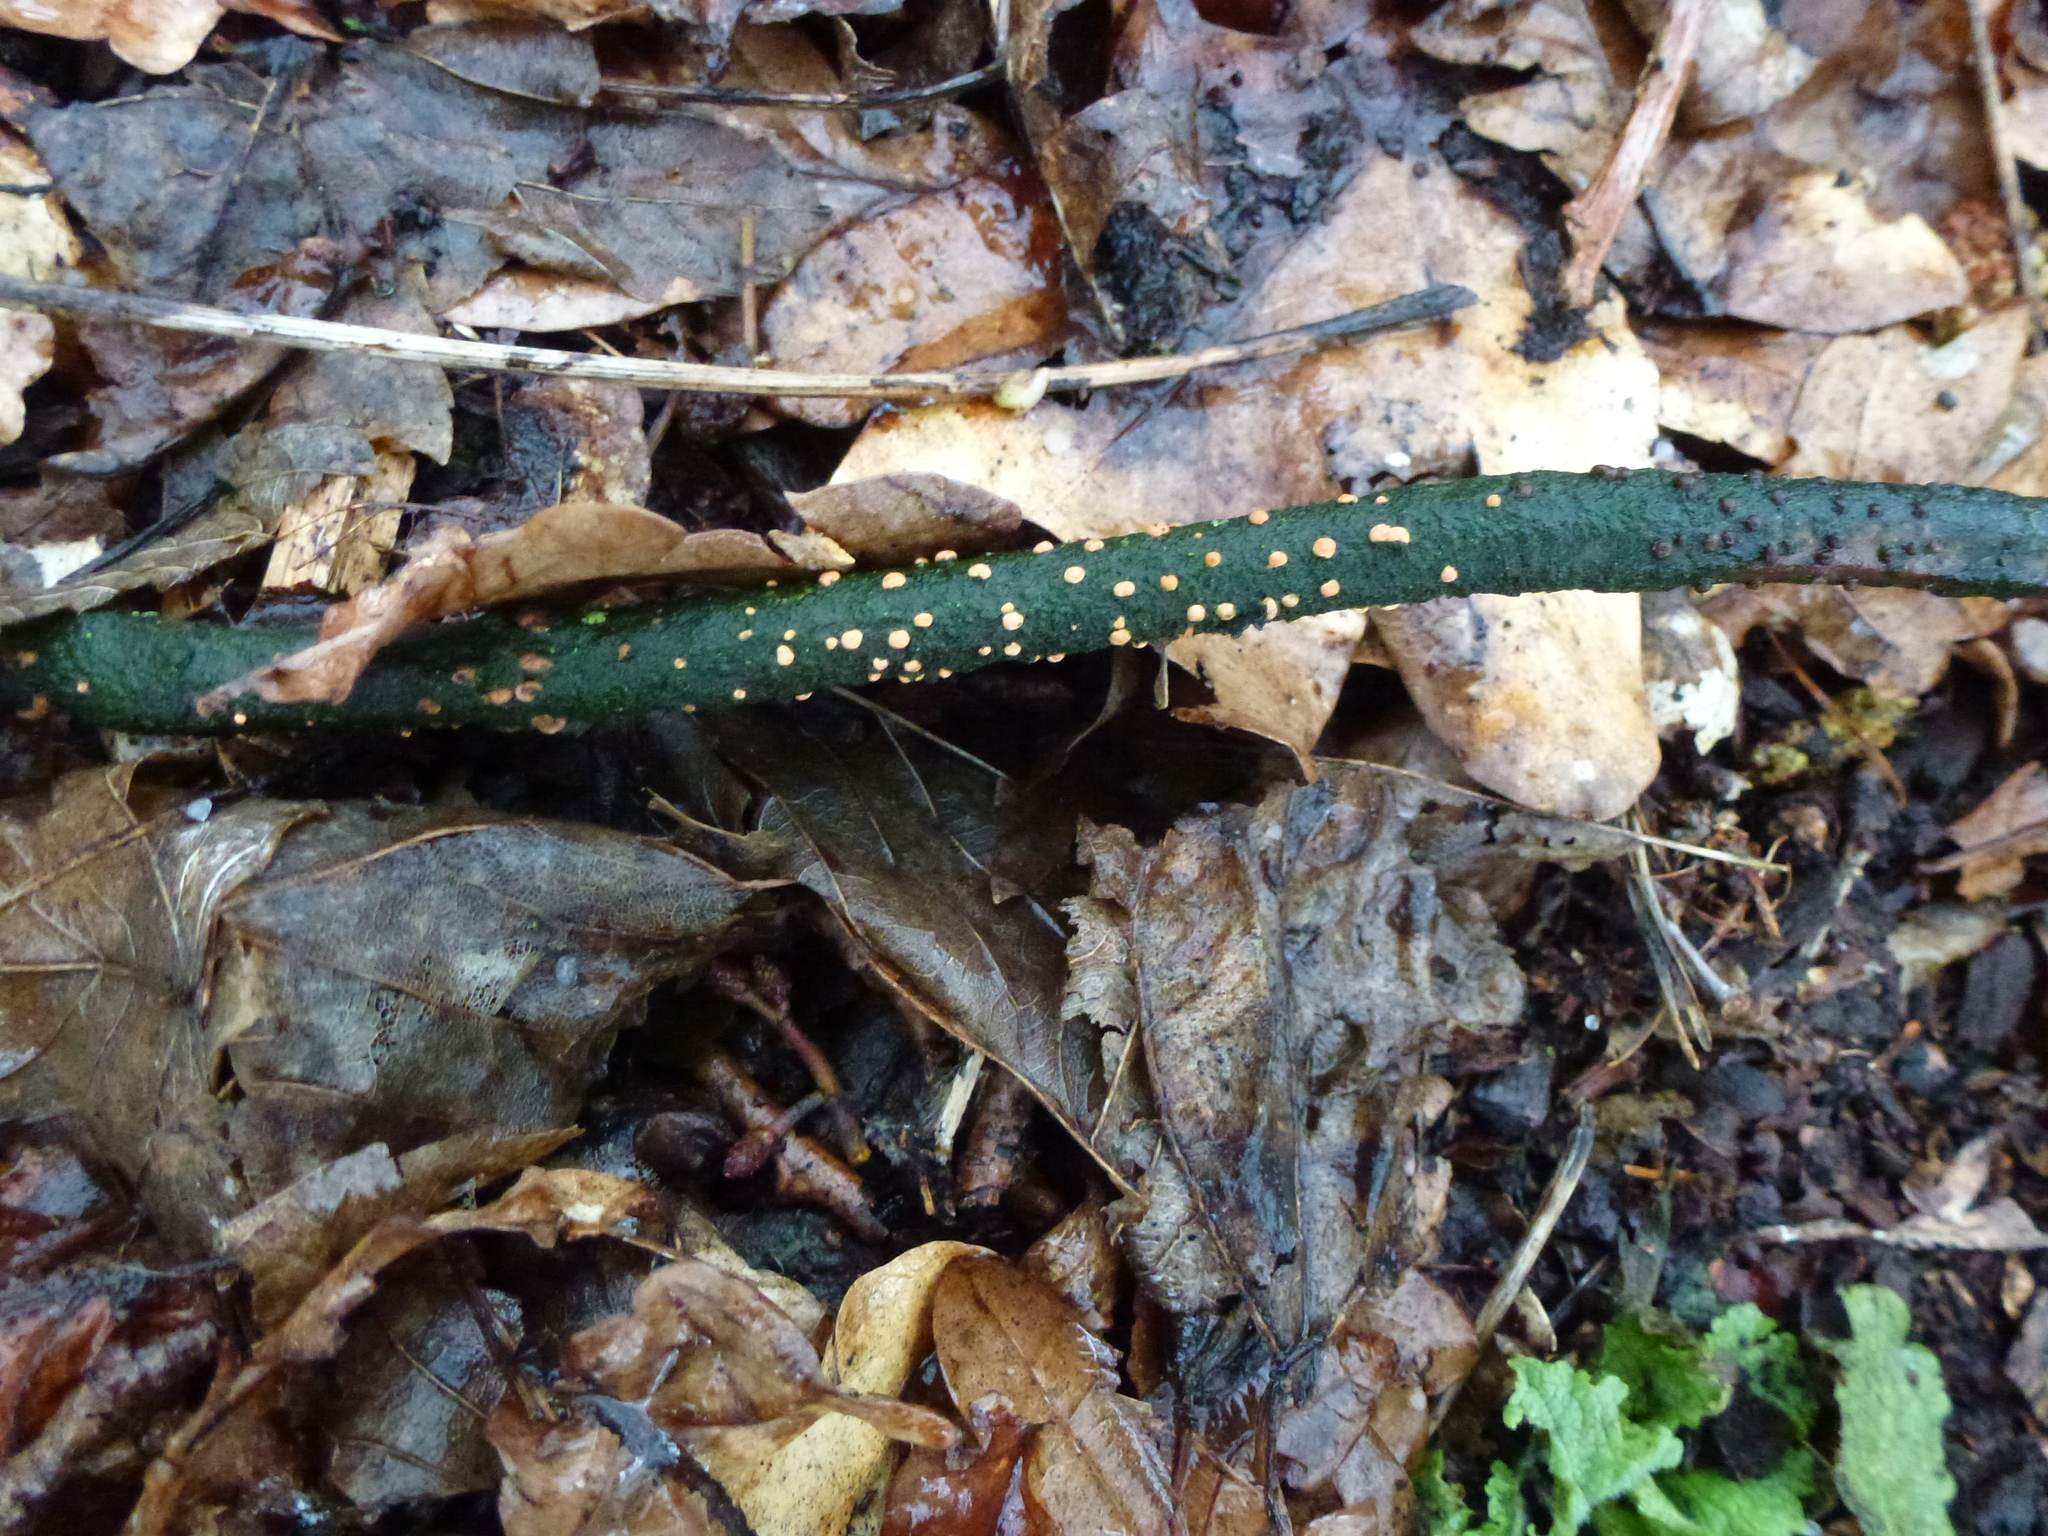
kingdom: Fungi
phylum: Ascomycota
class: Sordariomycetes
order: Hypocreales
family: Nectriaceae
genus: Nectria
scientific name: Nectria cinnabarina
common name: Coral spot
